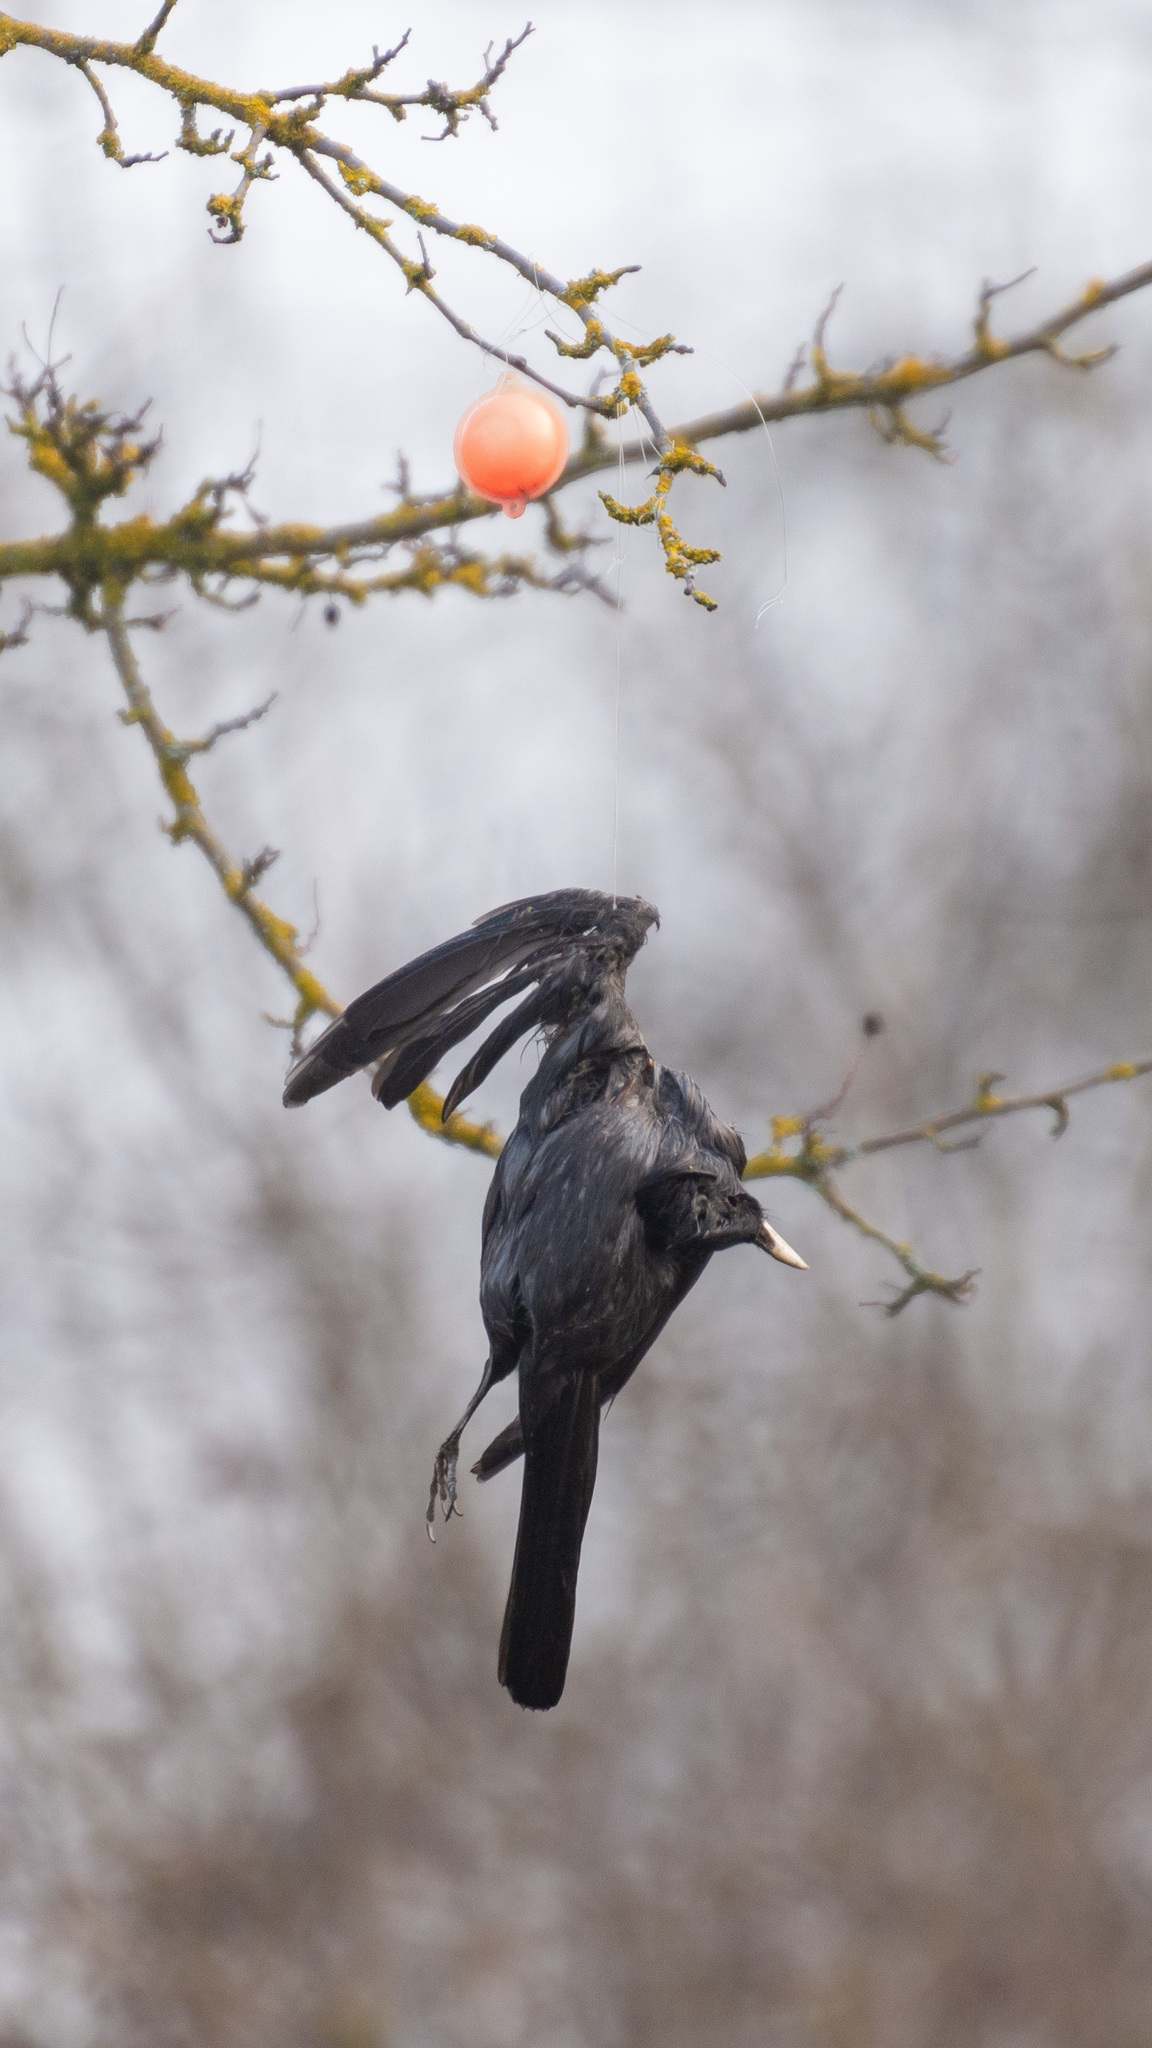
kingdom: Animalia
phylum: Chordata
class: Aves
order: Passeriformes
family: Turdidae
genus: Turdus
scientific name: Turdus merula
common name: Common blackbird
